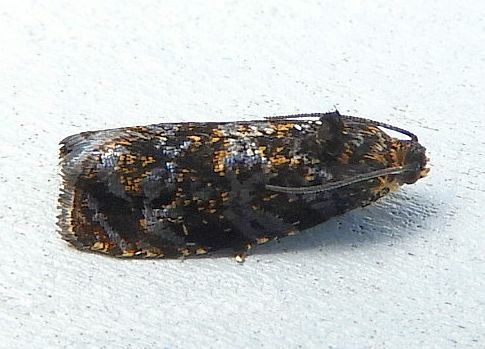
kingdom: Animalia
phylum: Arthropoda
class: Insecta
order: Lepidoptera
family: Tortricidae
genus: Pristerognatha
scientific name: Pristerognatha agilana
